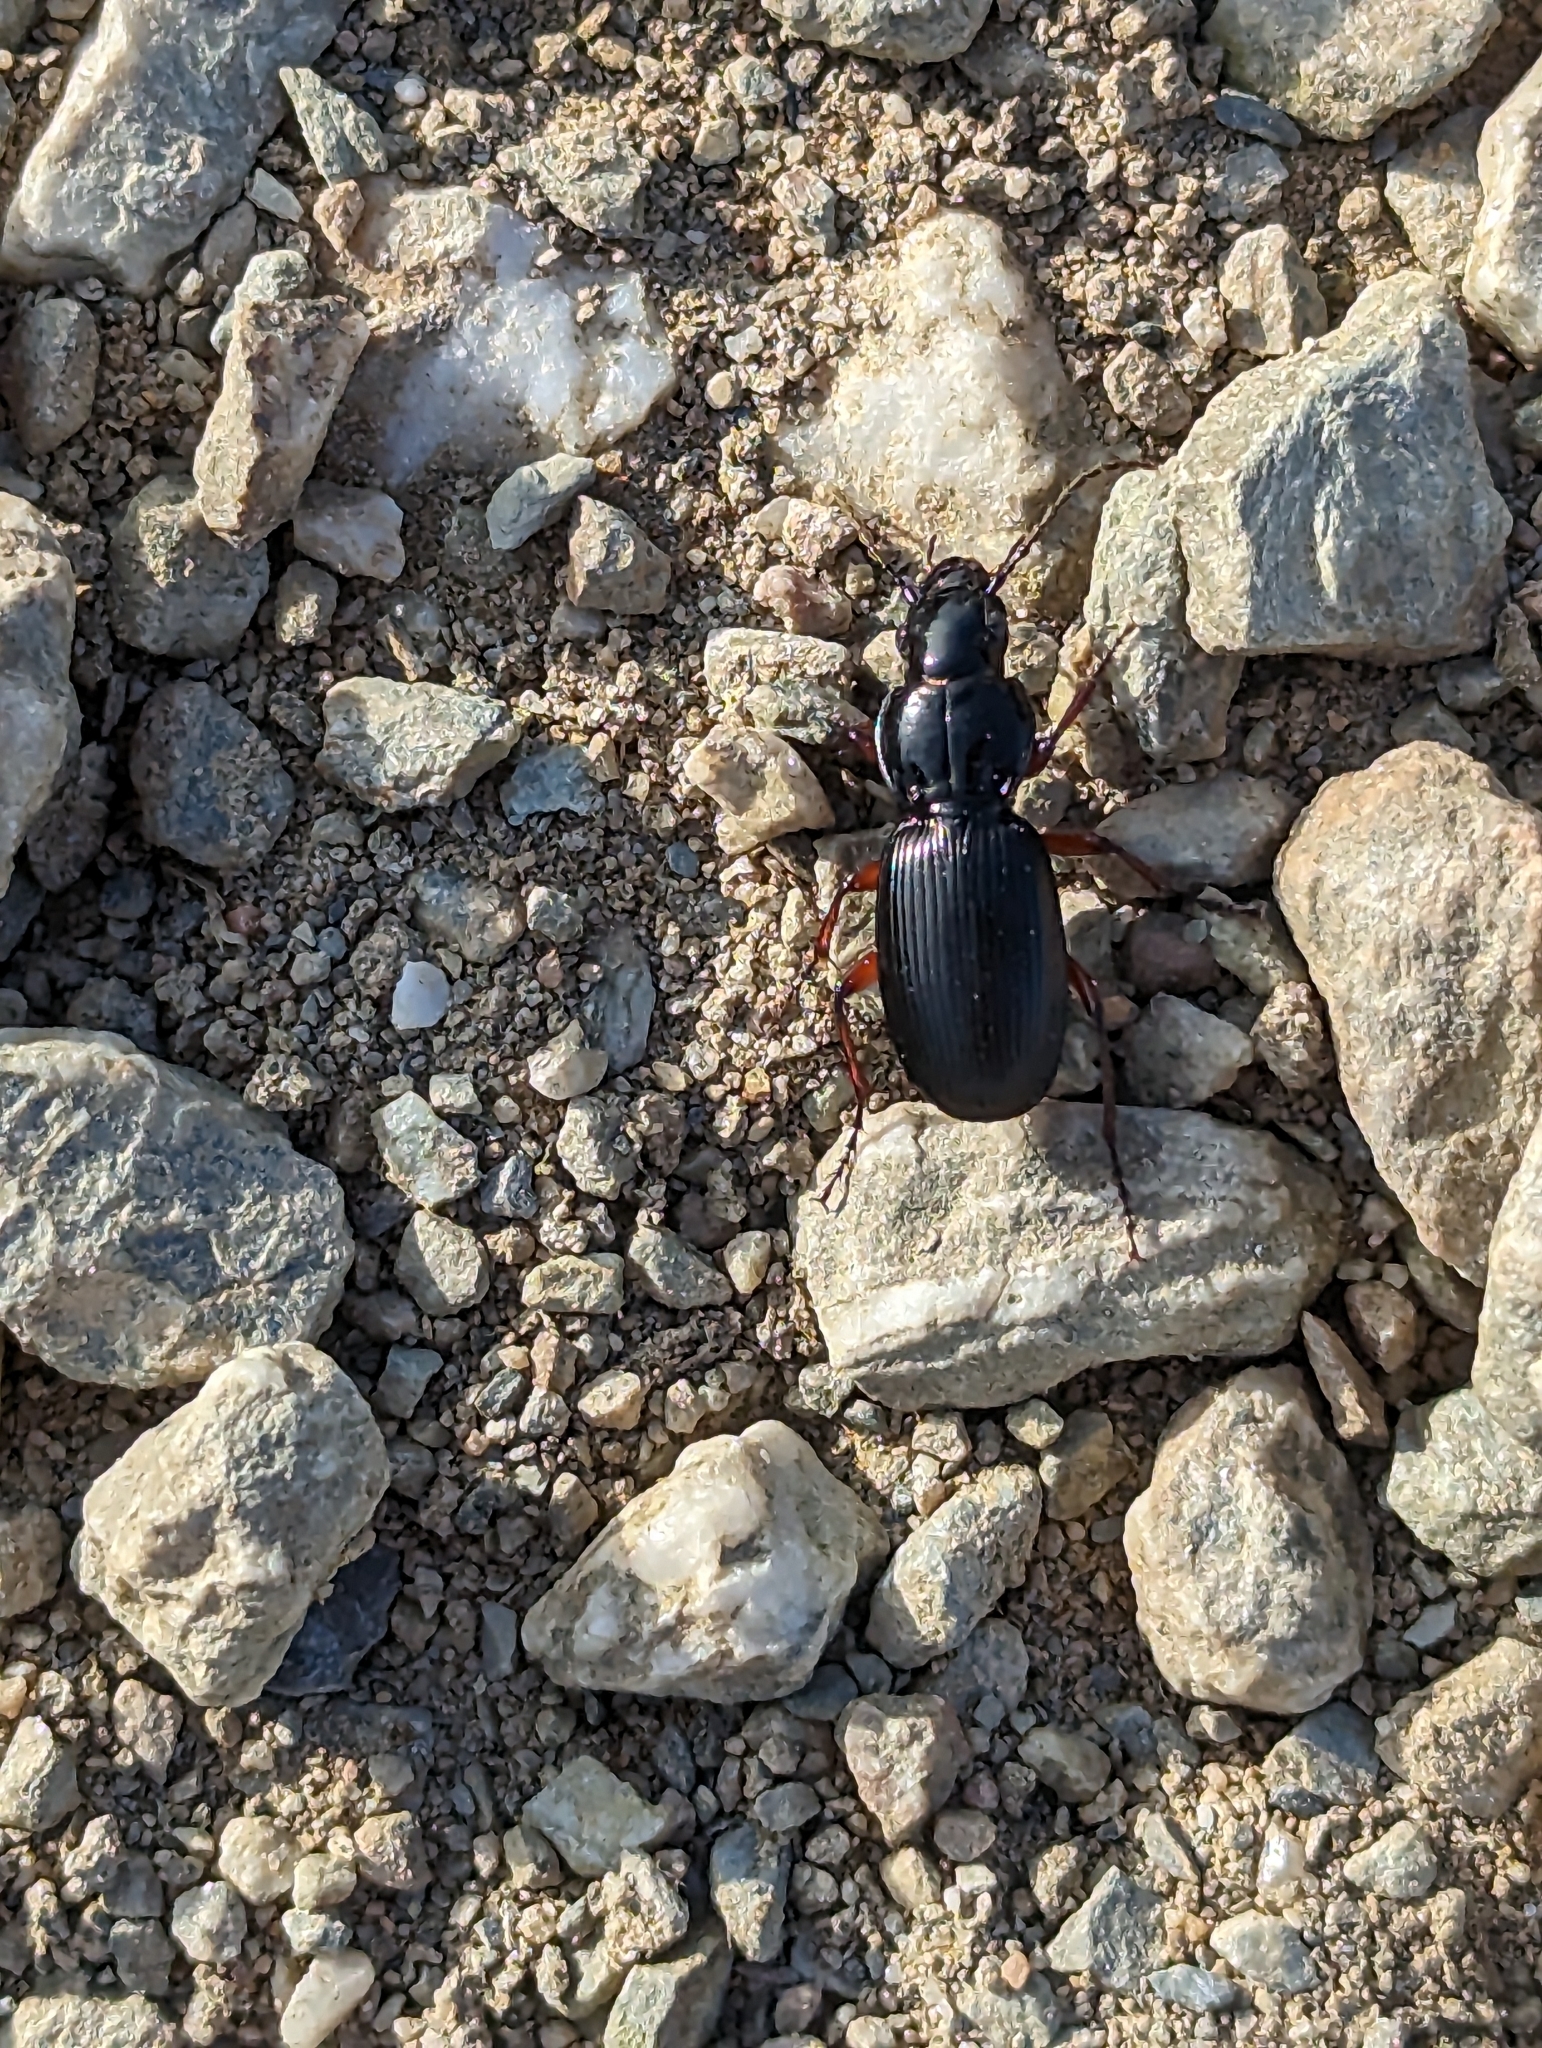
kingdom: Animalia
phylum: Arthropoda
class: Insecta
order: Coleoptera
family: Carabidae
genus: Pterostichus
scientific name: Pterostichus madidus
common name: Black clock
